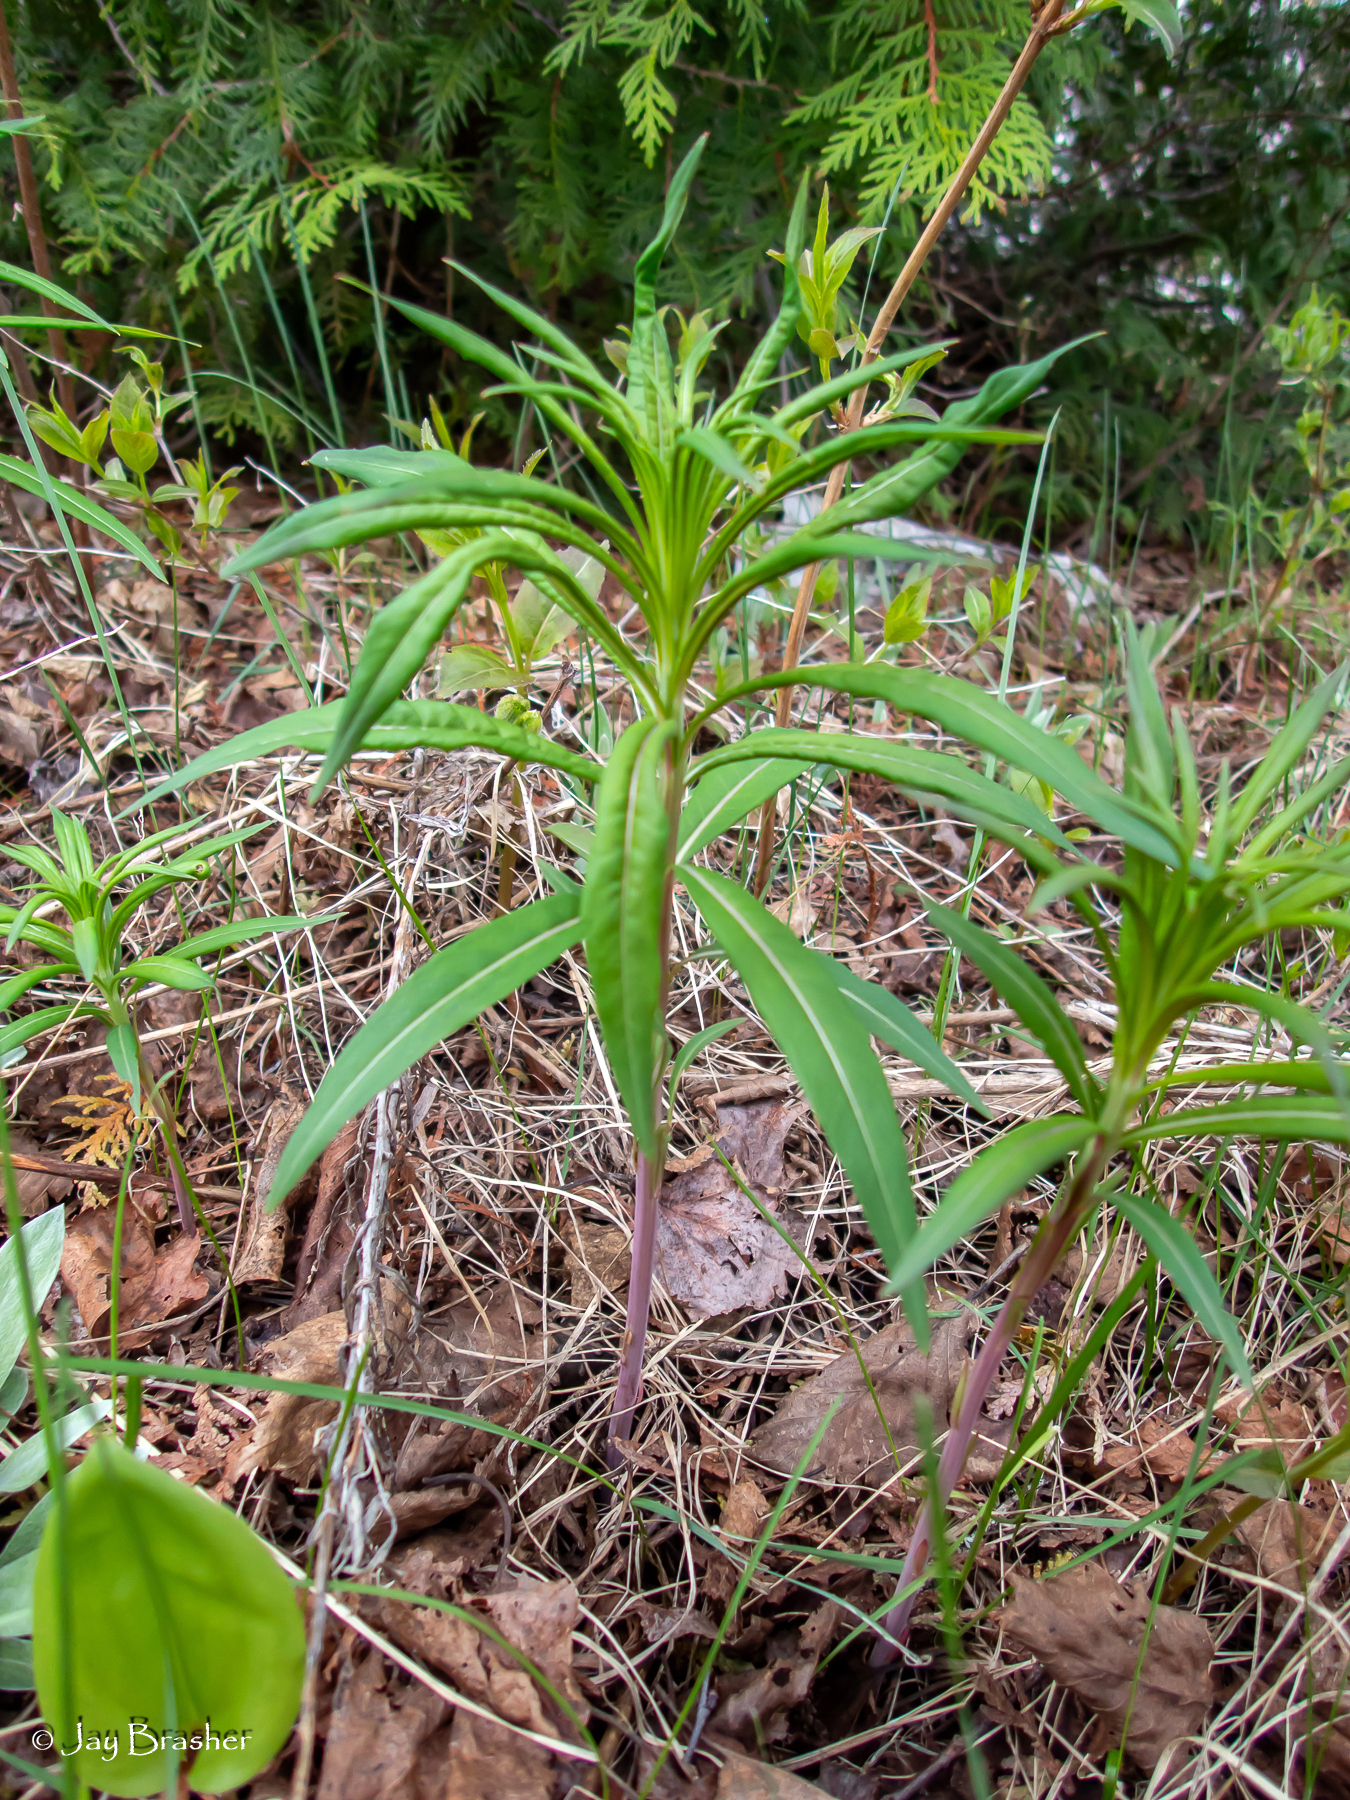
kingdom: Plantae
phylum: Tracheophyta
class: Magnoliopsida
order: Myrtales
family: Onagraceae
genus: Chamaenerion
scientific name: Chamaenerion angustifolium
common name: Fireweed
